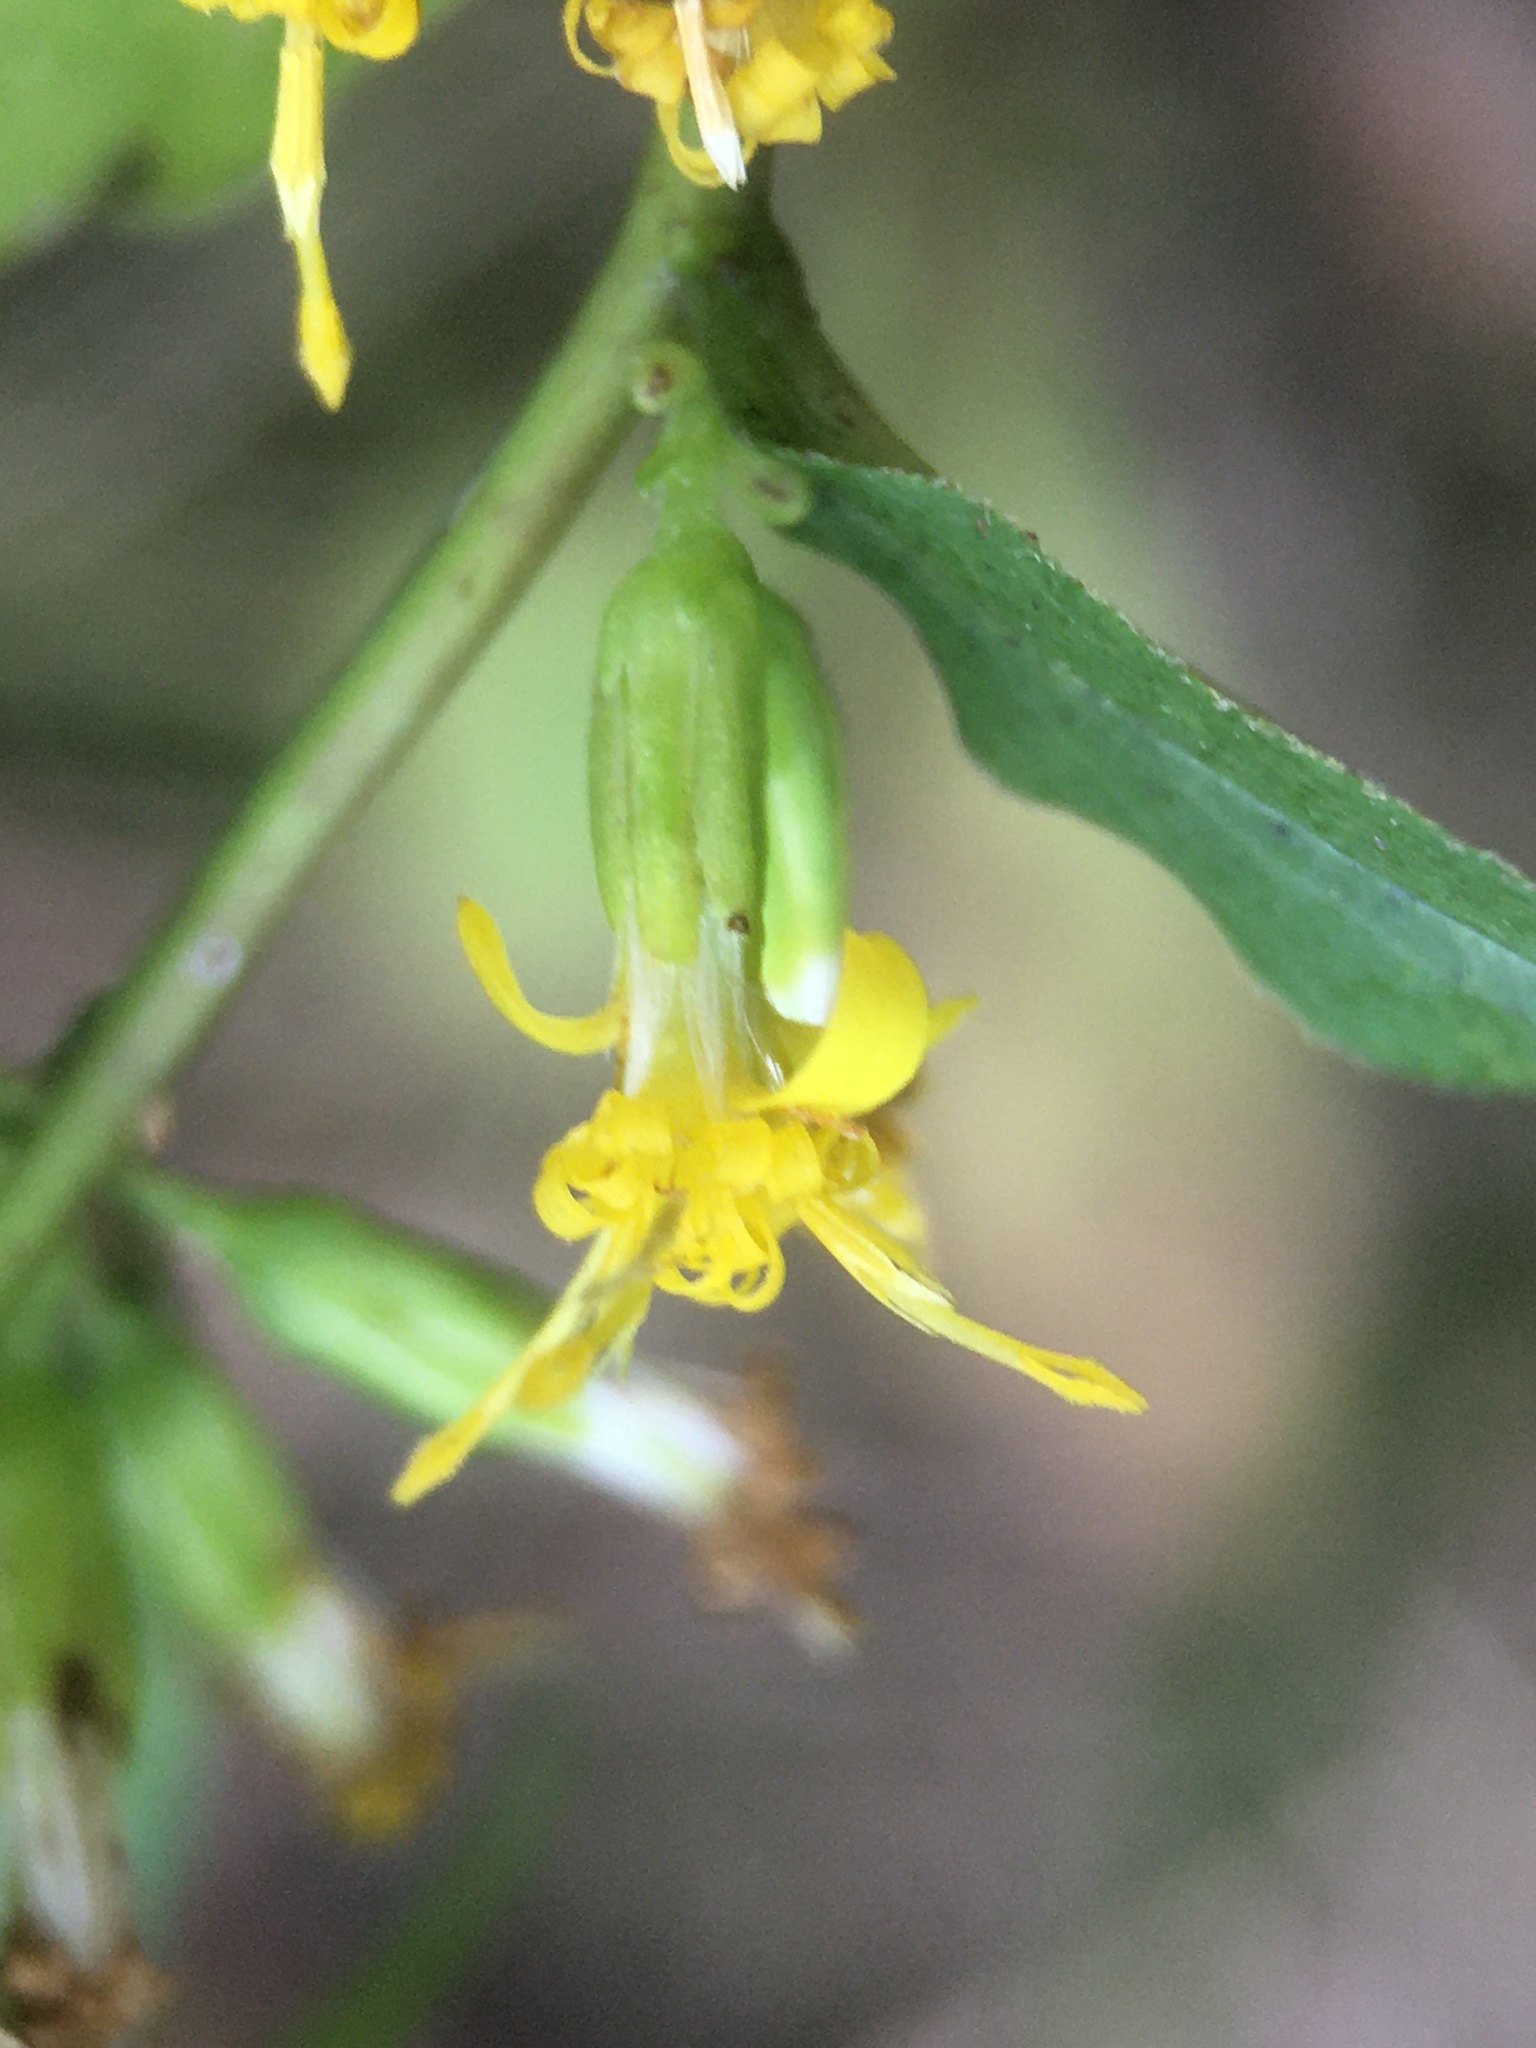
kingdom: Plantae
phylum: Tracheophyta
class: Magnoliopsida
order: Asterales
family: Asteraceae
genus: Solidago
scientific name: Solidago caesia
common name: Woodland goldenrod
